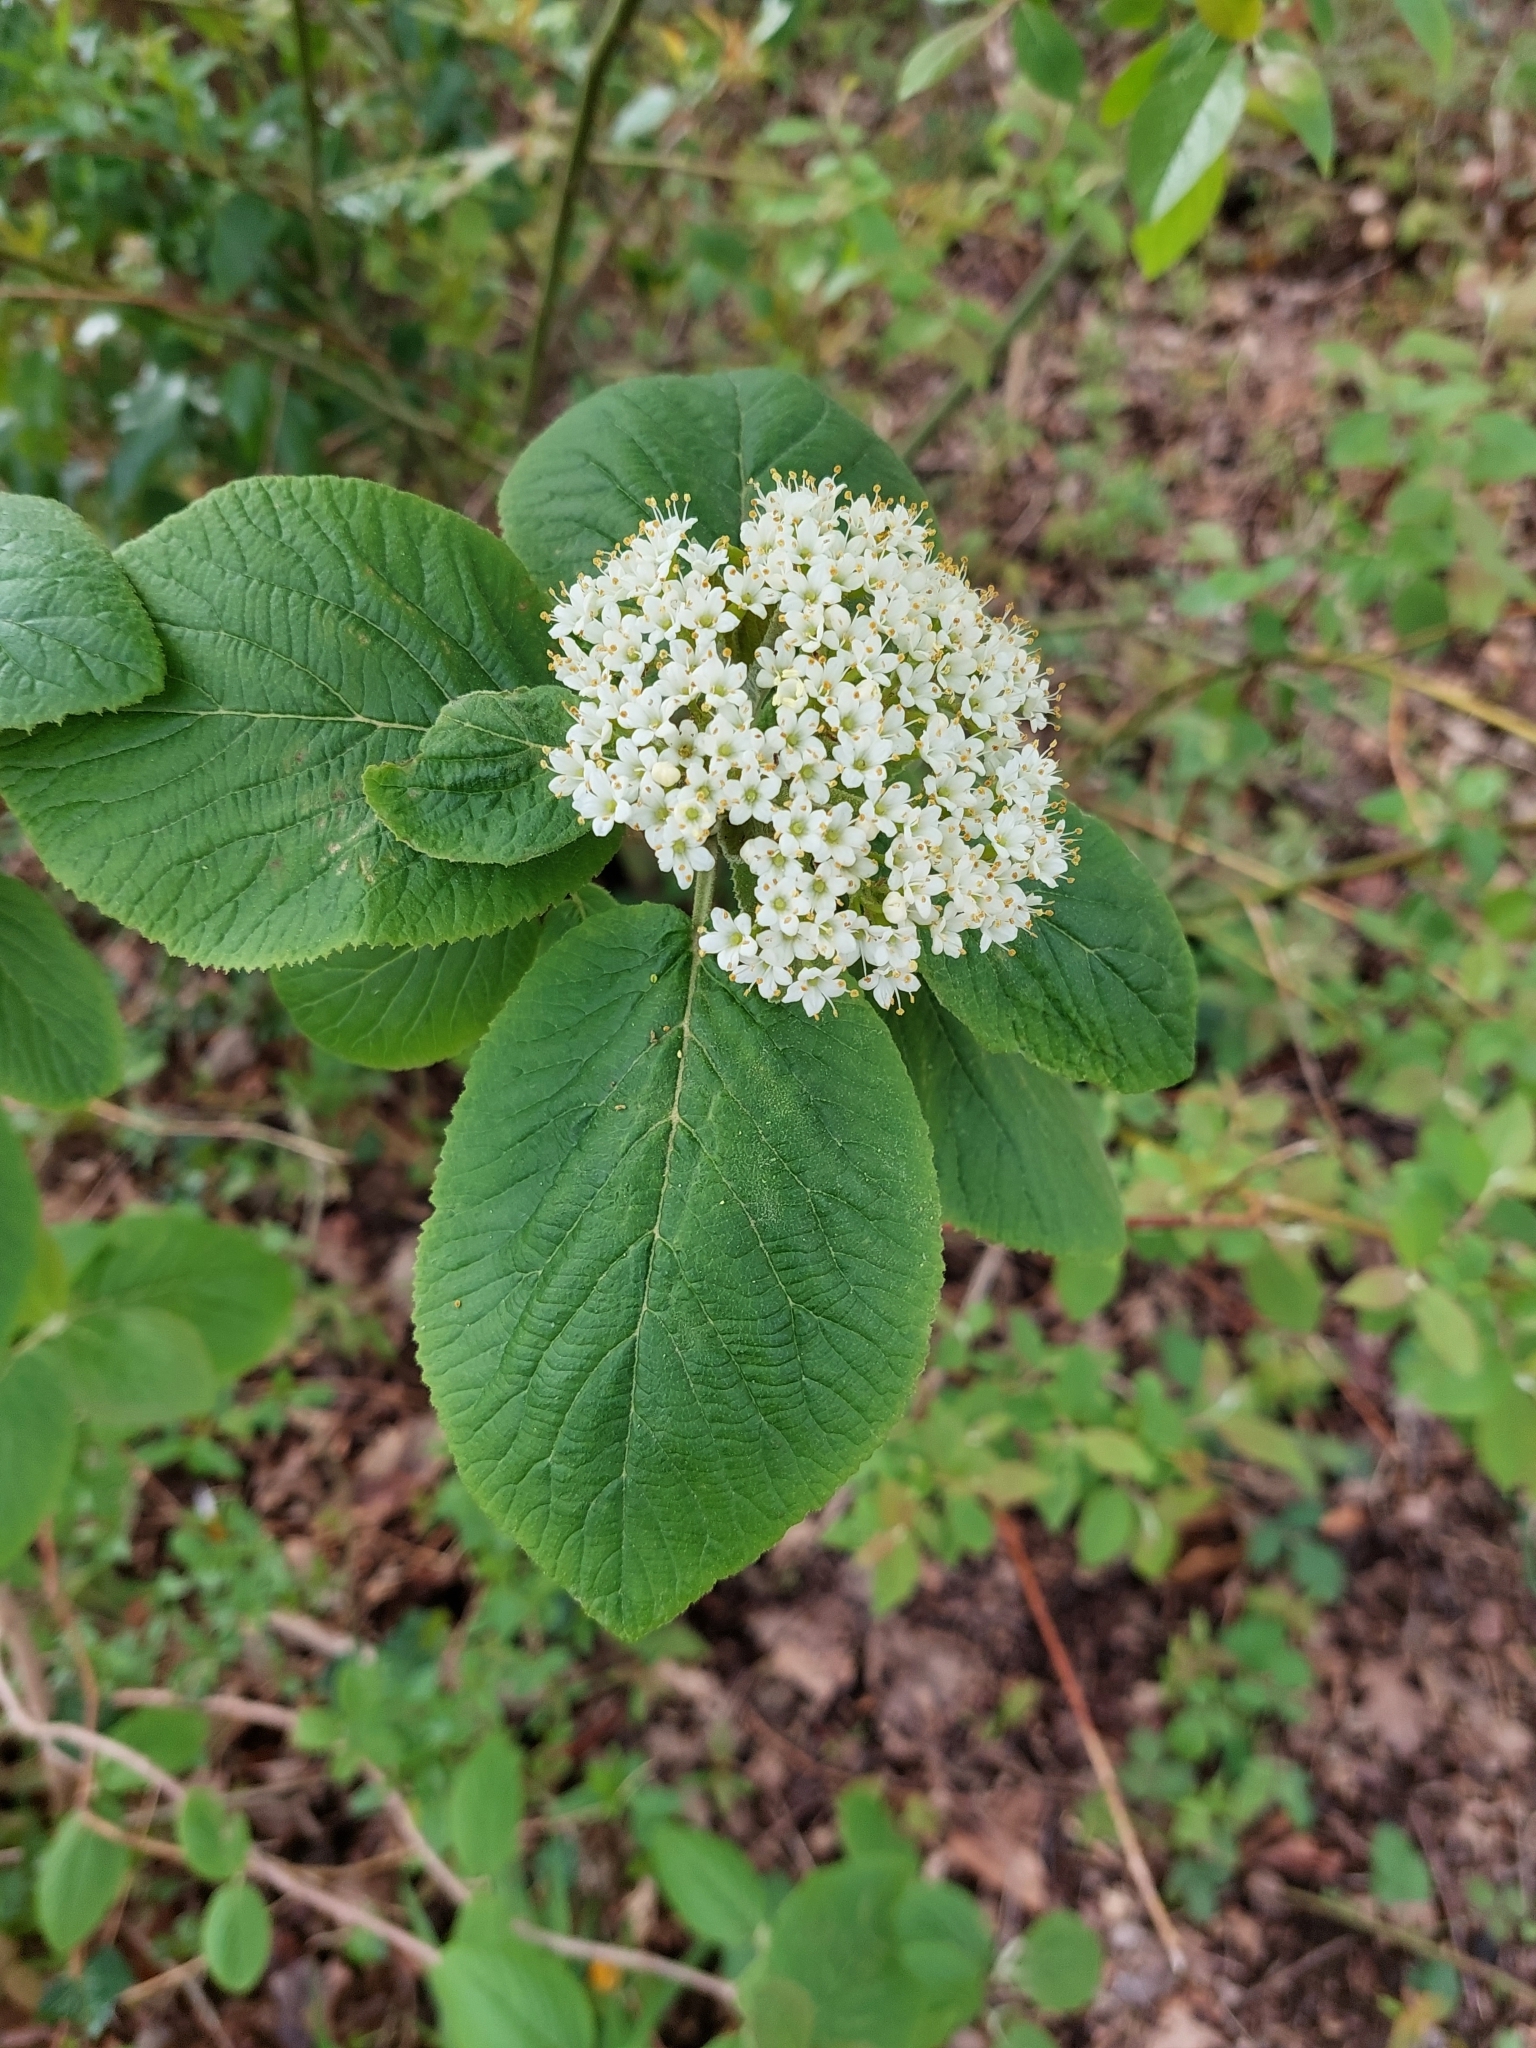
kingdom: Plantae
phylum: Tracheophyta
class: Magnoliopsida
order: Dipsacales
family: Viburnaceae
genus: Viburnum
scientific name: Viburnum lantana
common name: Wayfaring tree
